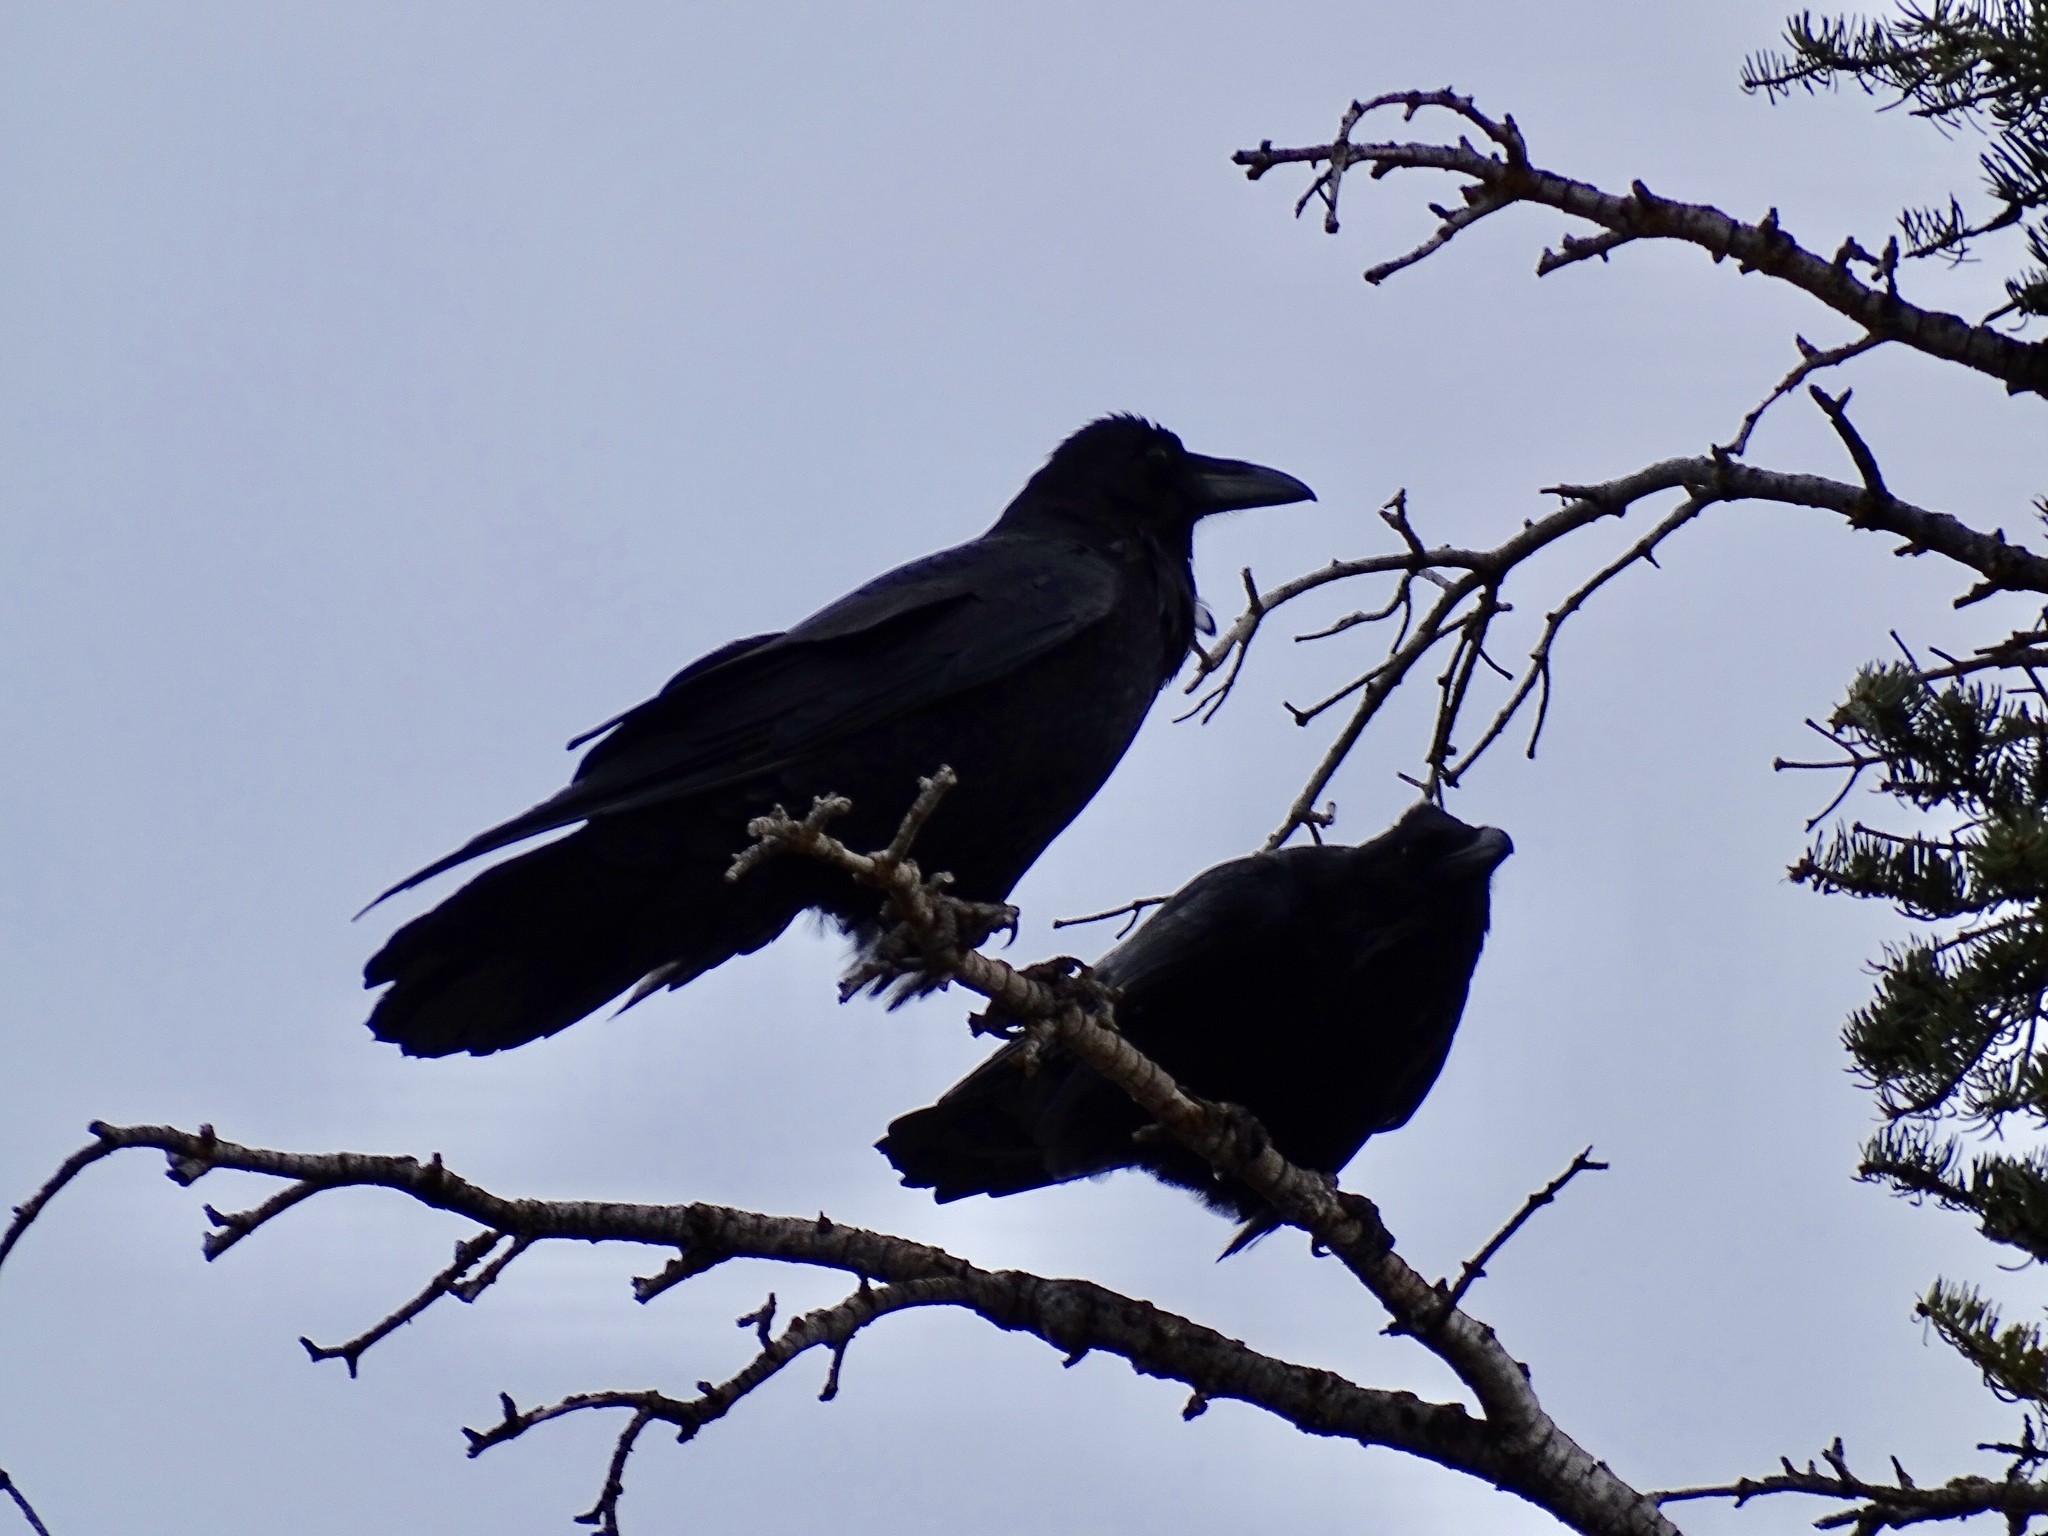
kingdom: Animalia
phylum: Chordata
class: Aves
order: Passeriformes
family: Corvidae
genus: Corvus
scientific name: Corvus corax
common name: Common raven
